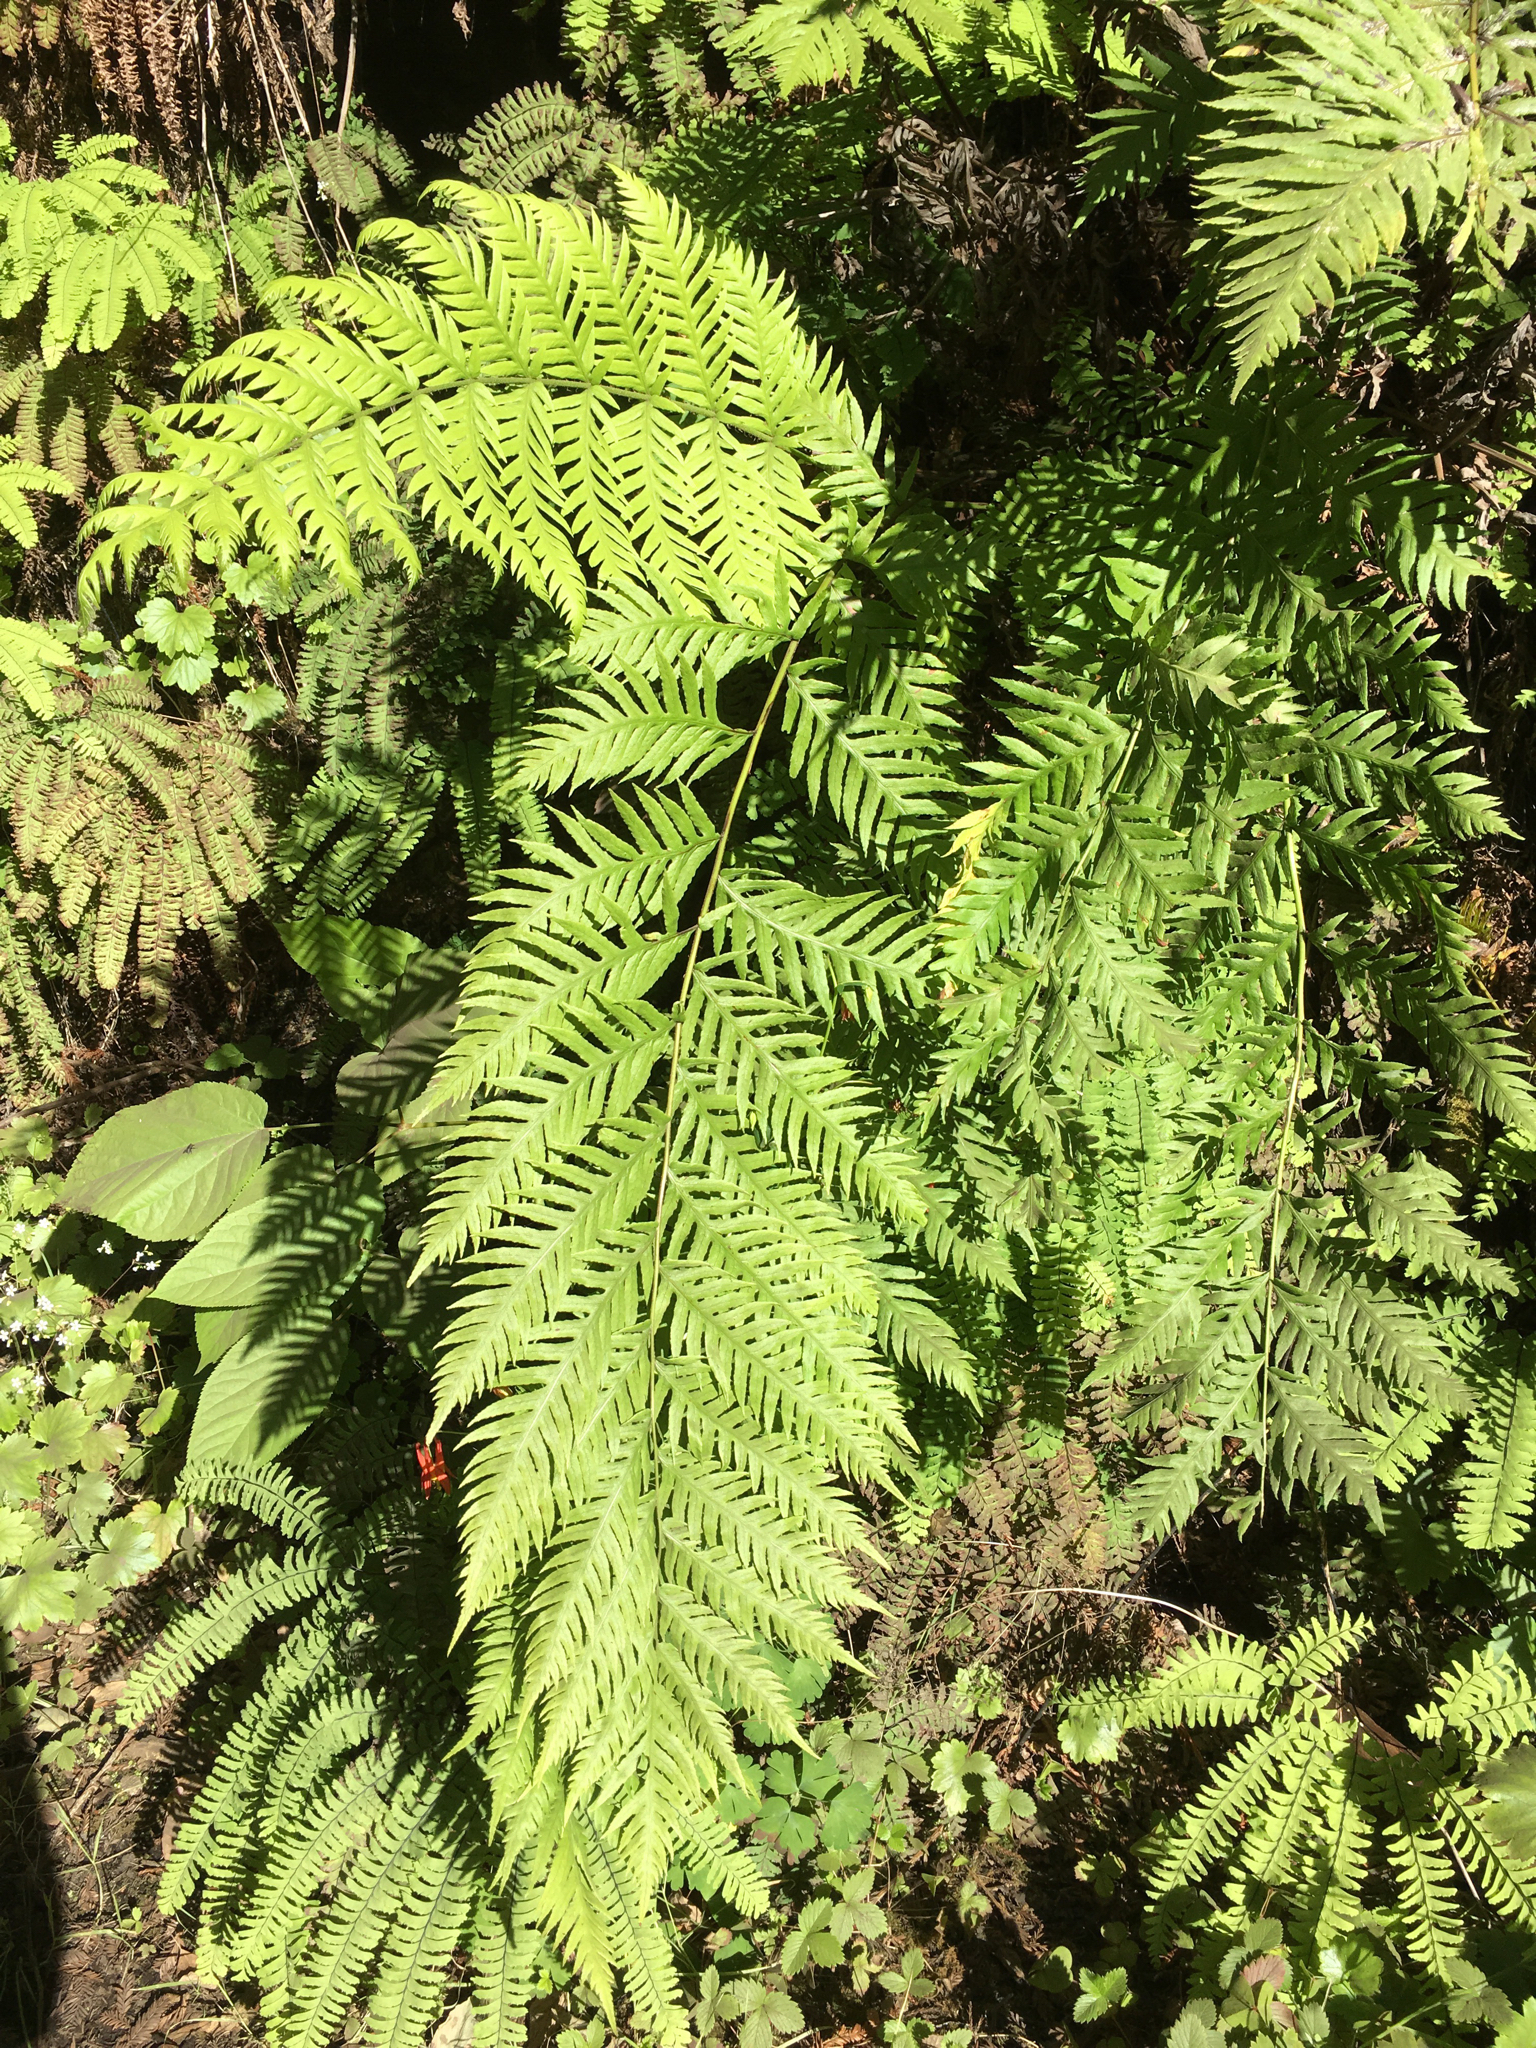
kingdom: Plantae
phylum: Tracheophyta
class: Polypodiopsida
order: Polypodiales
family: Blechnaceae
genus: Woodwardia
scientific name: Woodwardia fimbriata
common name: Giant chain fern
